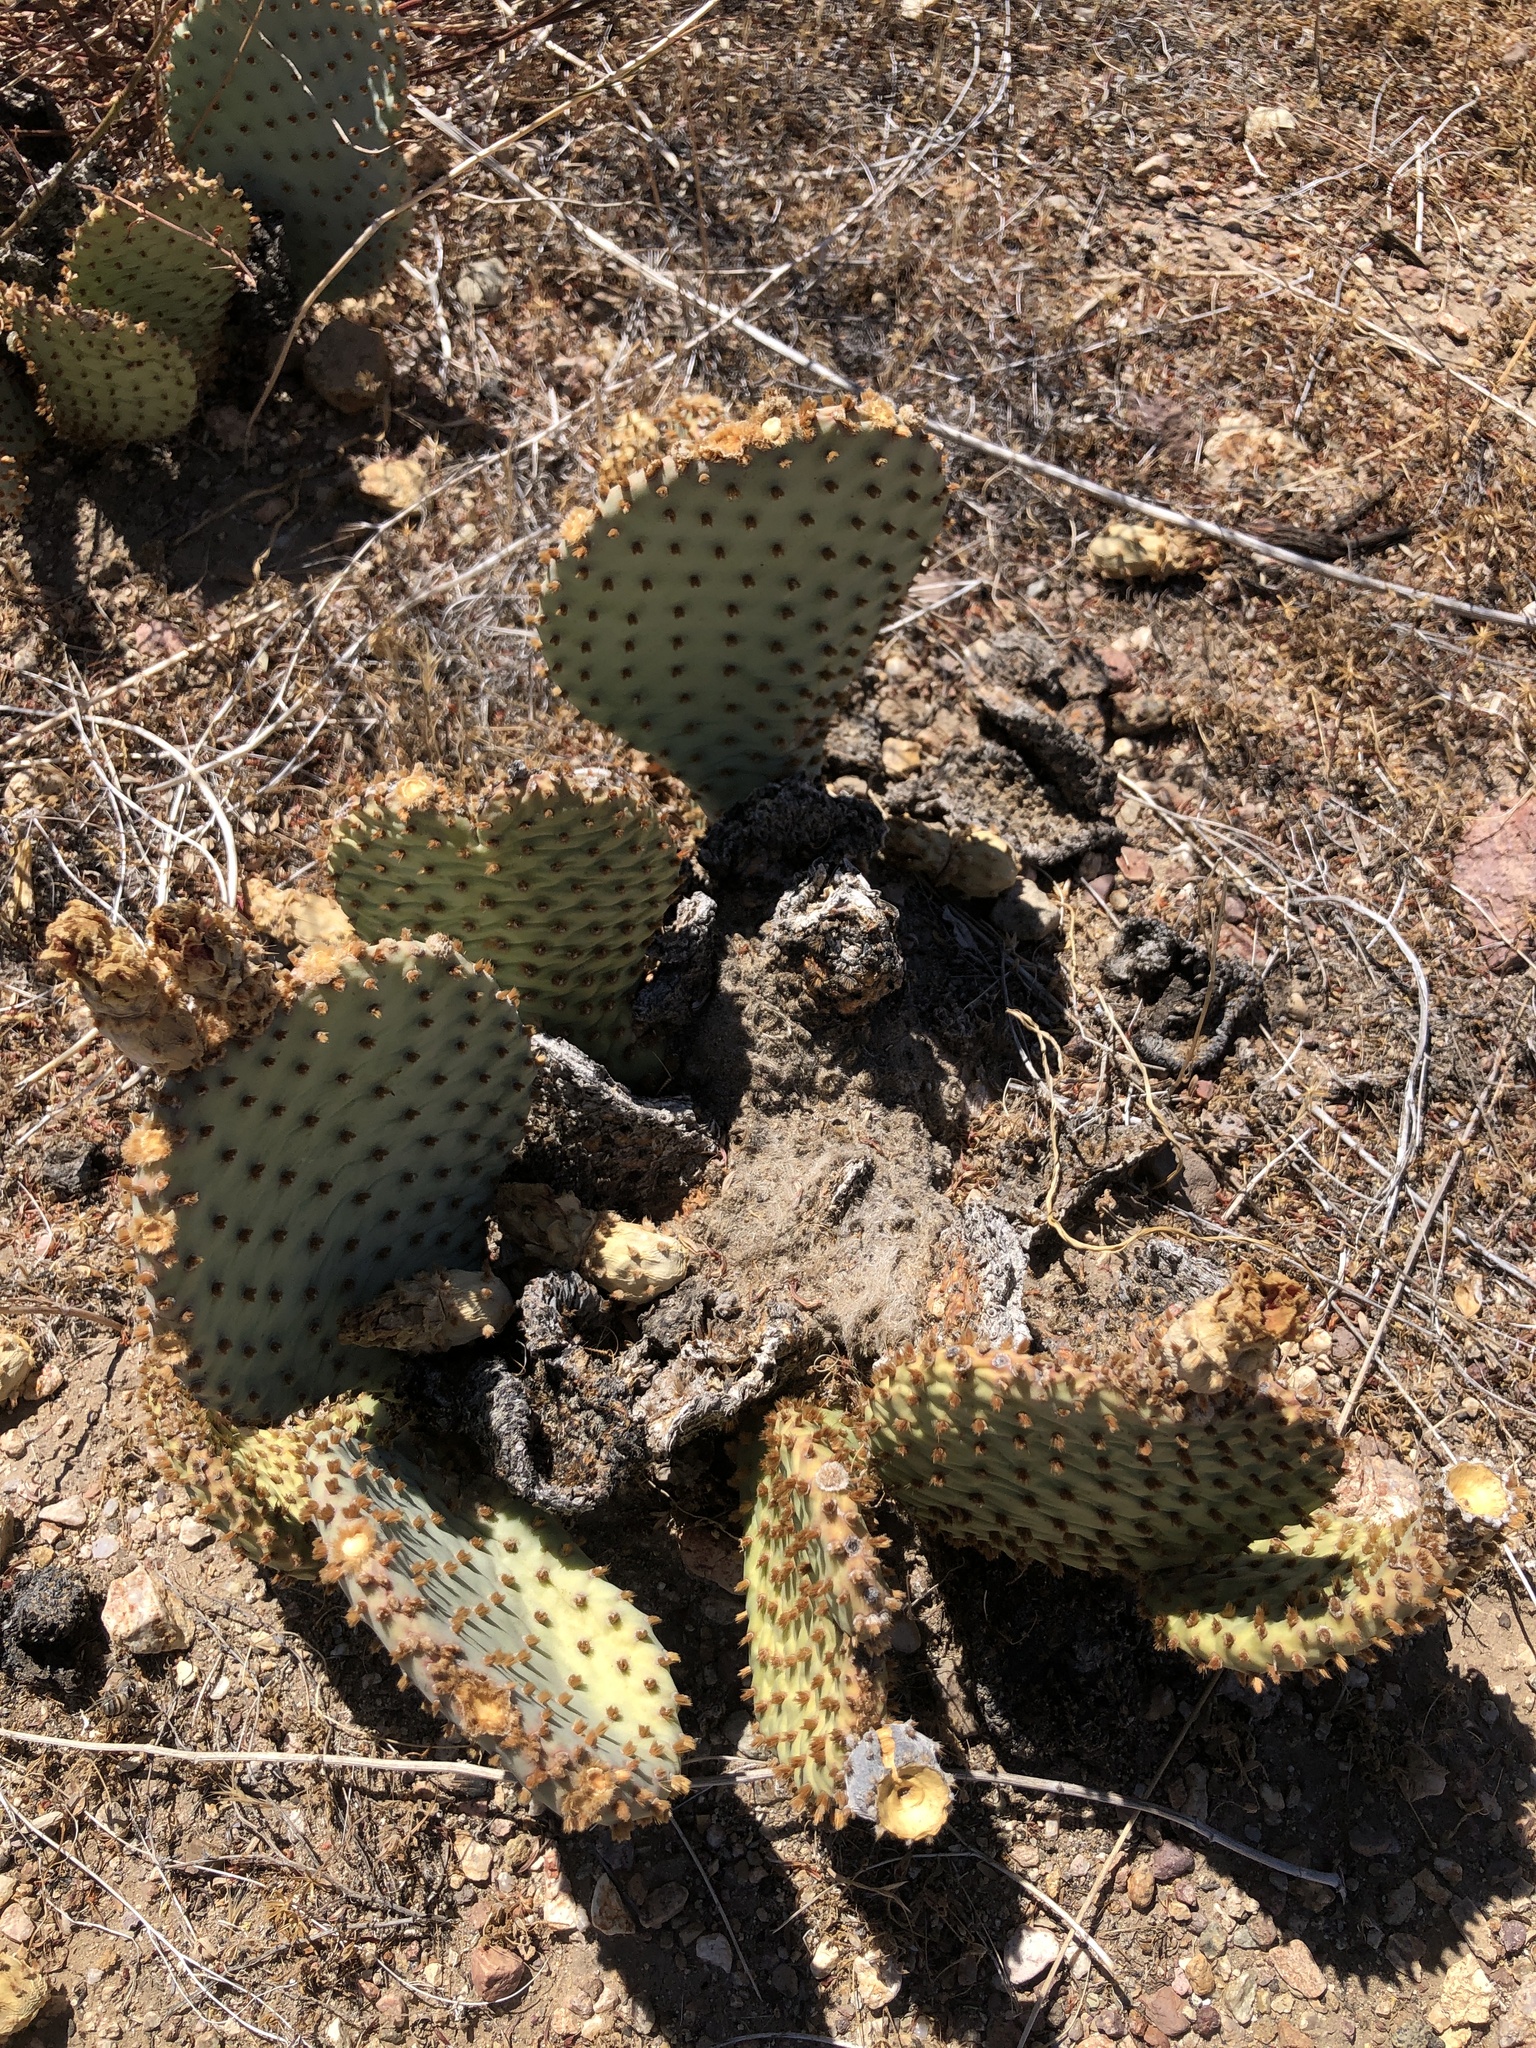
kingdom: Plantae
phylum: Tracheophyta
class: Magnoliopsida
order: Caryophyllales
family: Cactaceae
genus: Opuntia
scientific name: Opuntia basilaris
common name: Beavertail prickly-pear
